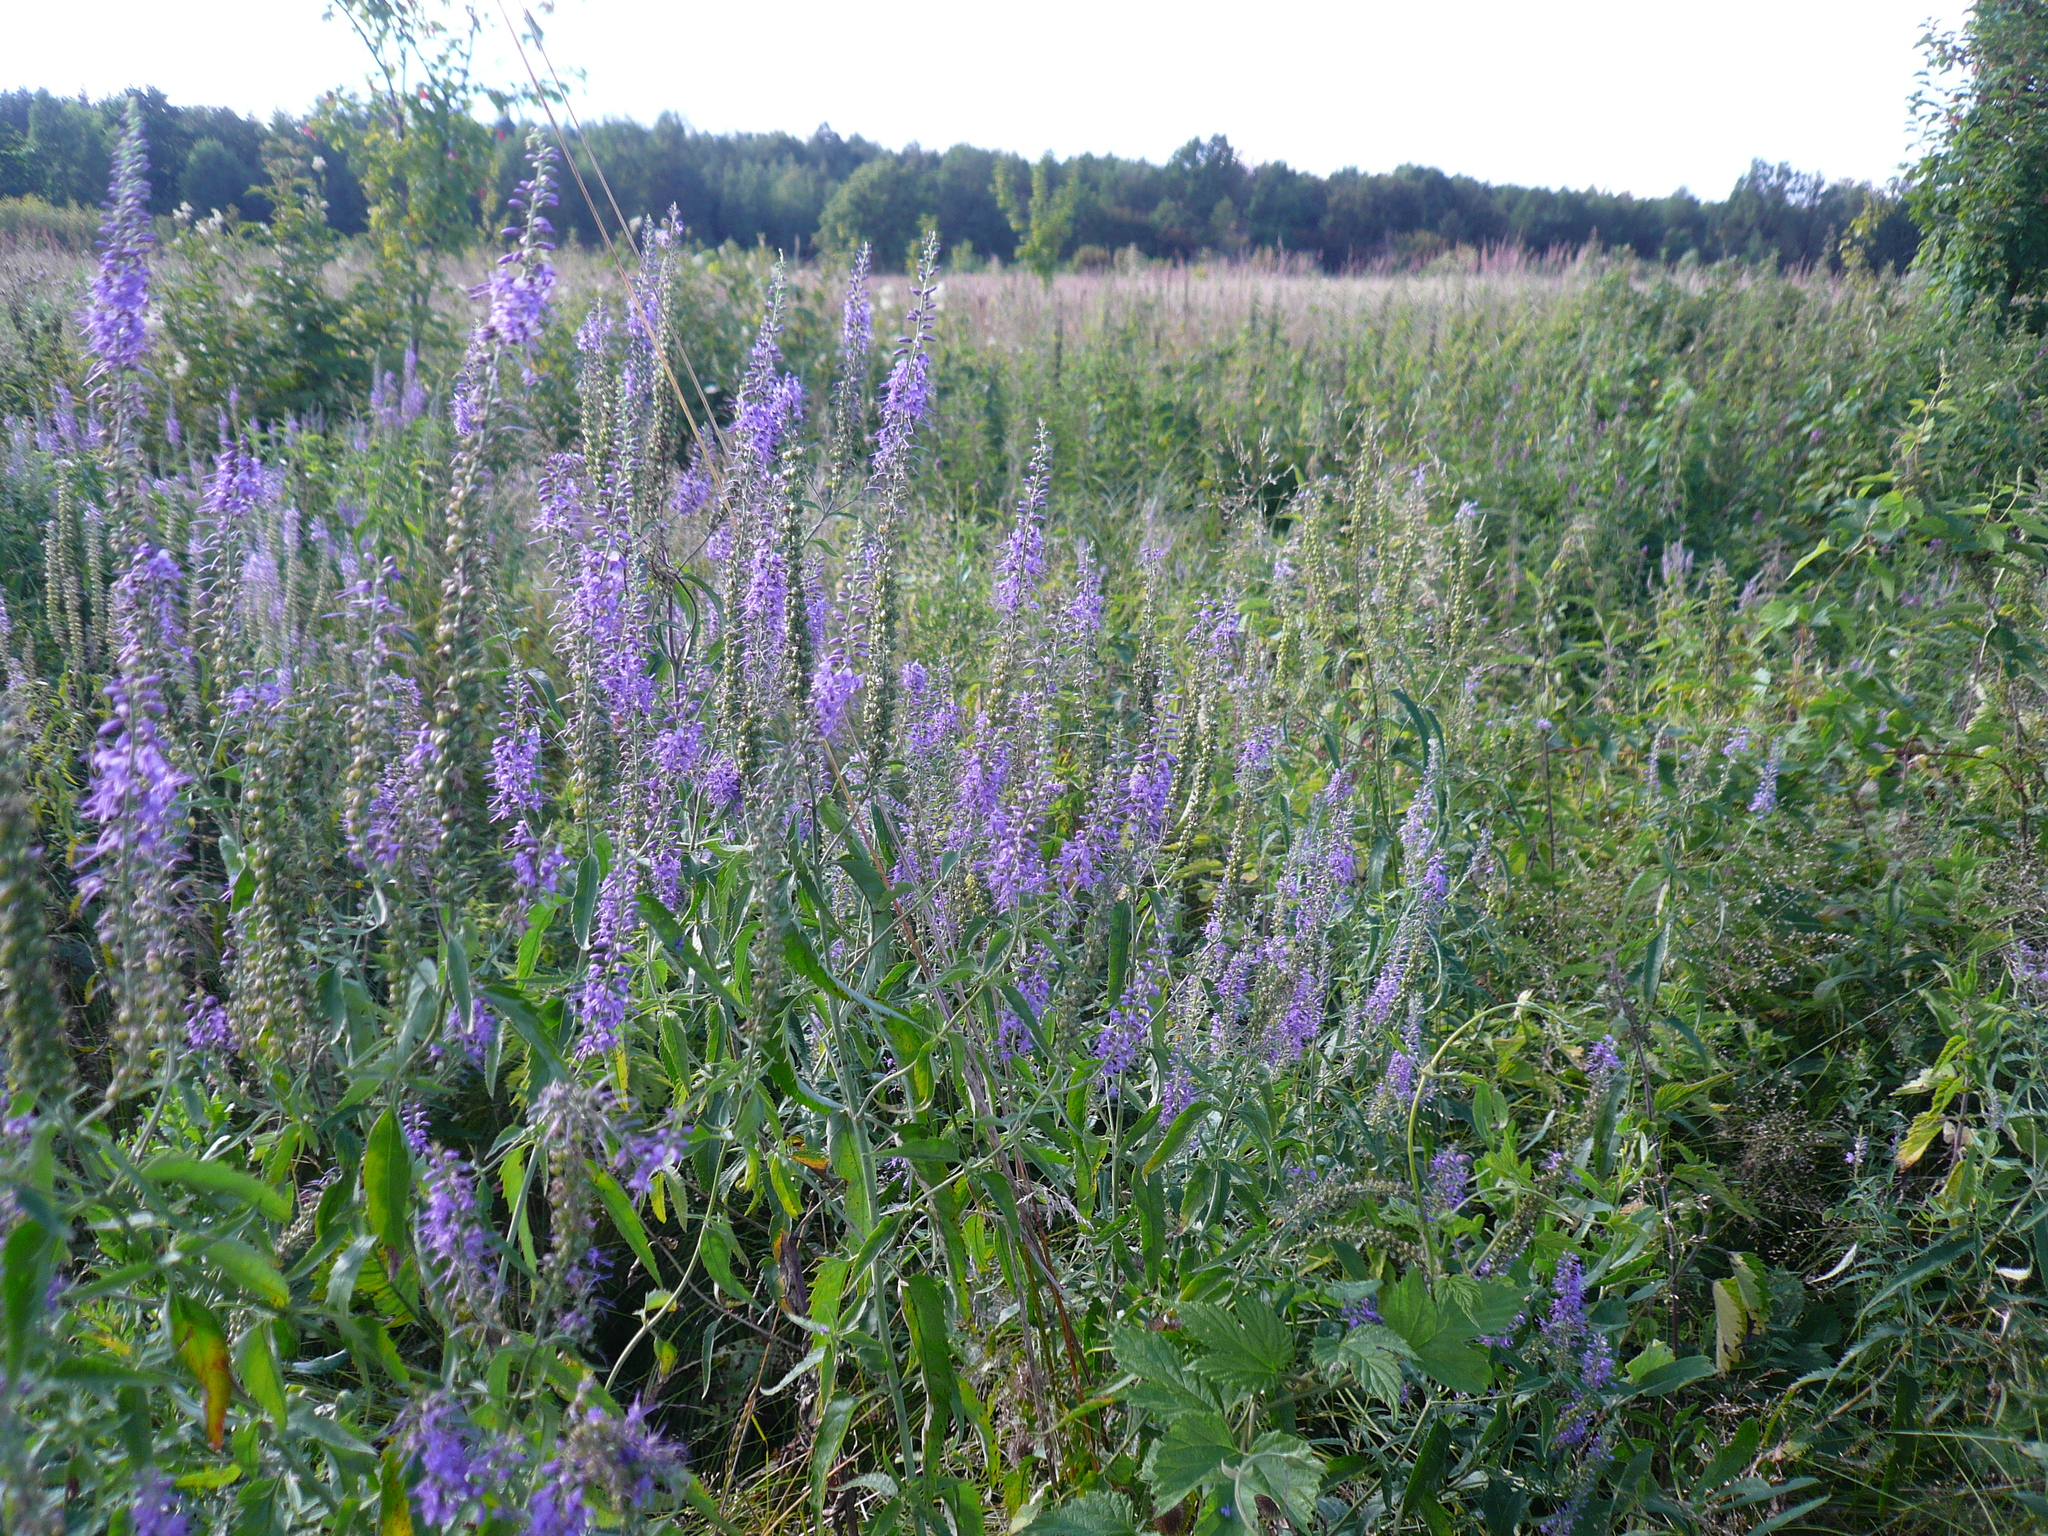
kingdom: Plantae
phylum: Tracheophyta
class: Magnoliopsida
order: Lamiales
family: Plantaginaceae
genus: Veronica
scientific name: Veronica longifolia
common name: Garden speedwell
